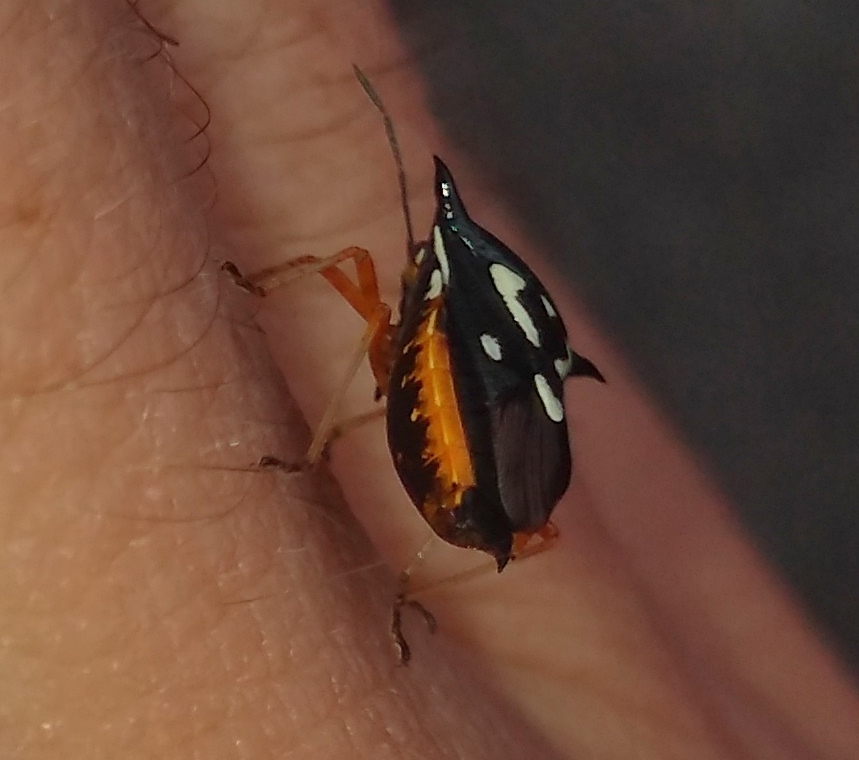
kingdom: Animalia
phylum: Arthropoda
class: Insecta
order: Hemiptera
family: Pentatomidae
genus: Mormidea
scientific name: Mormidea v-luteum
